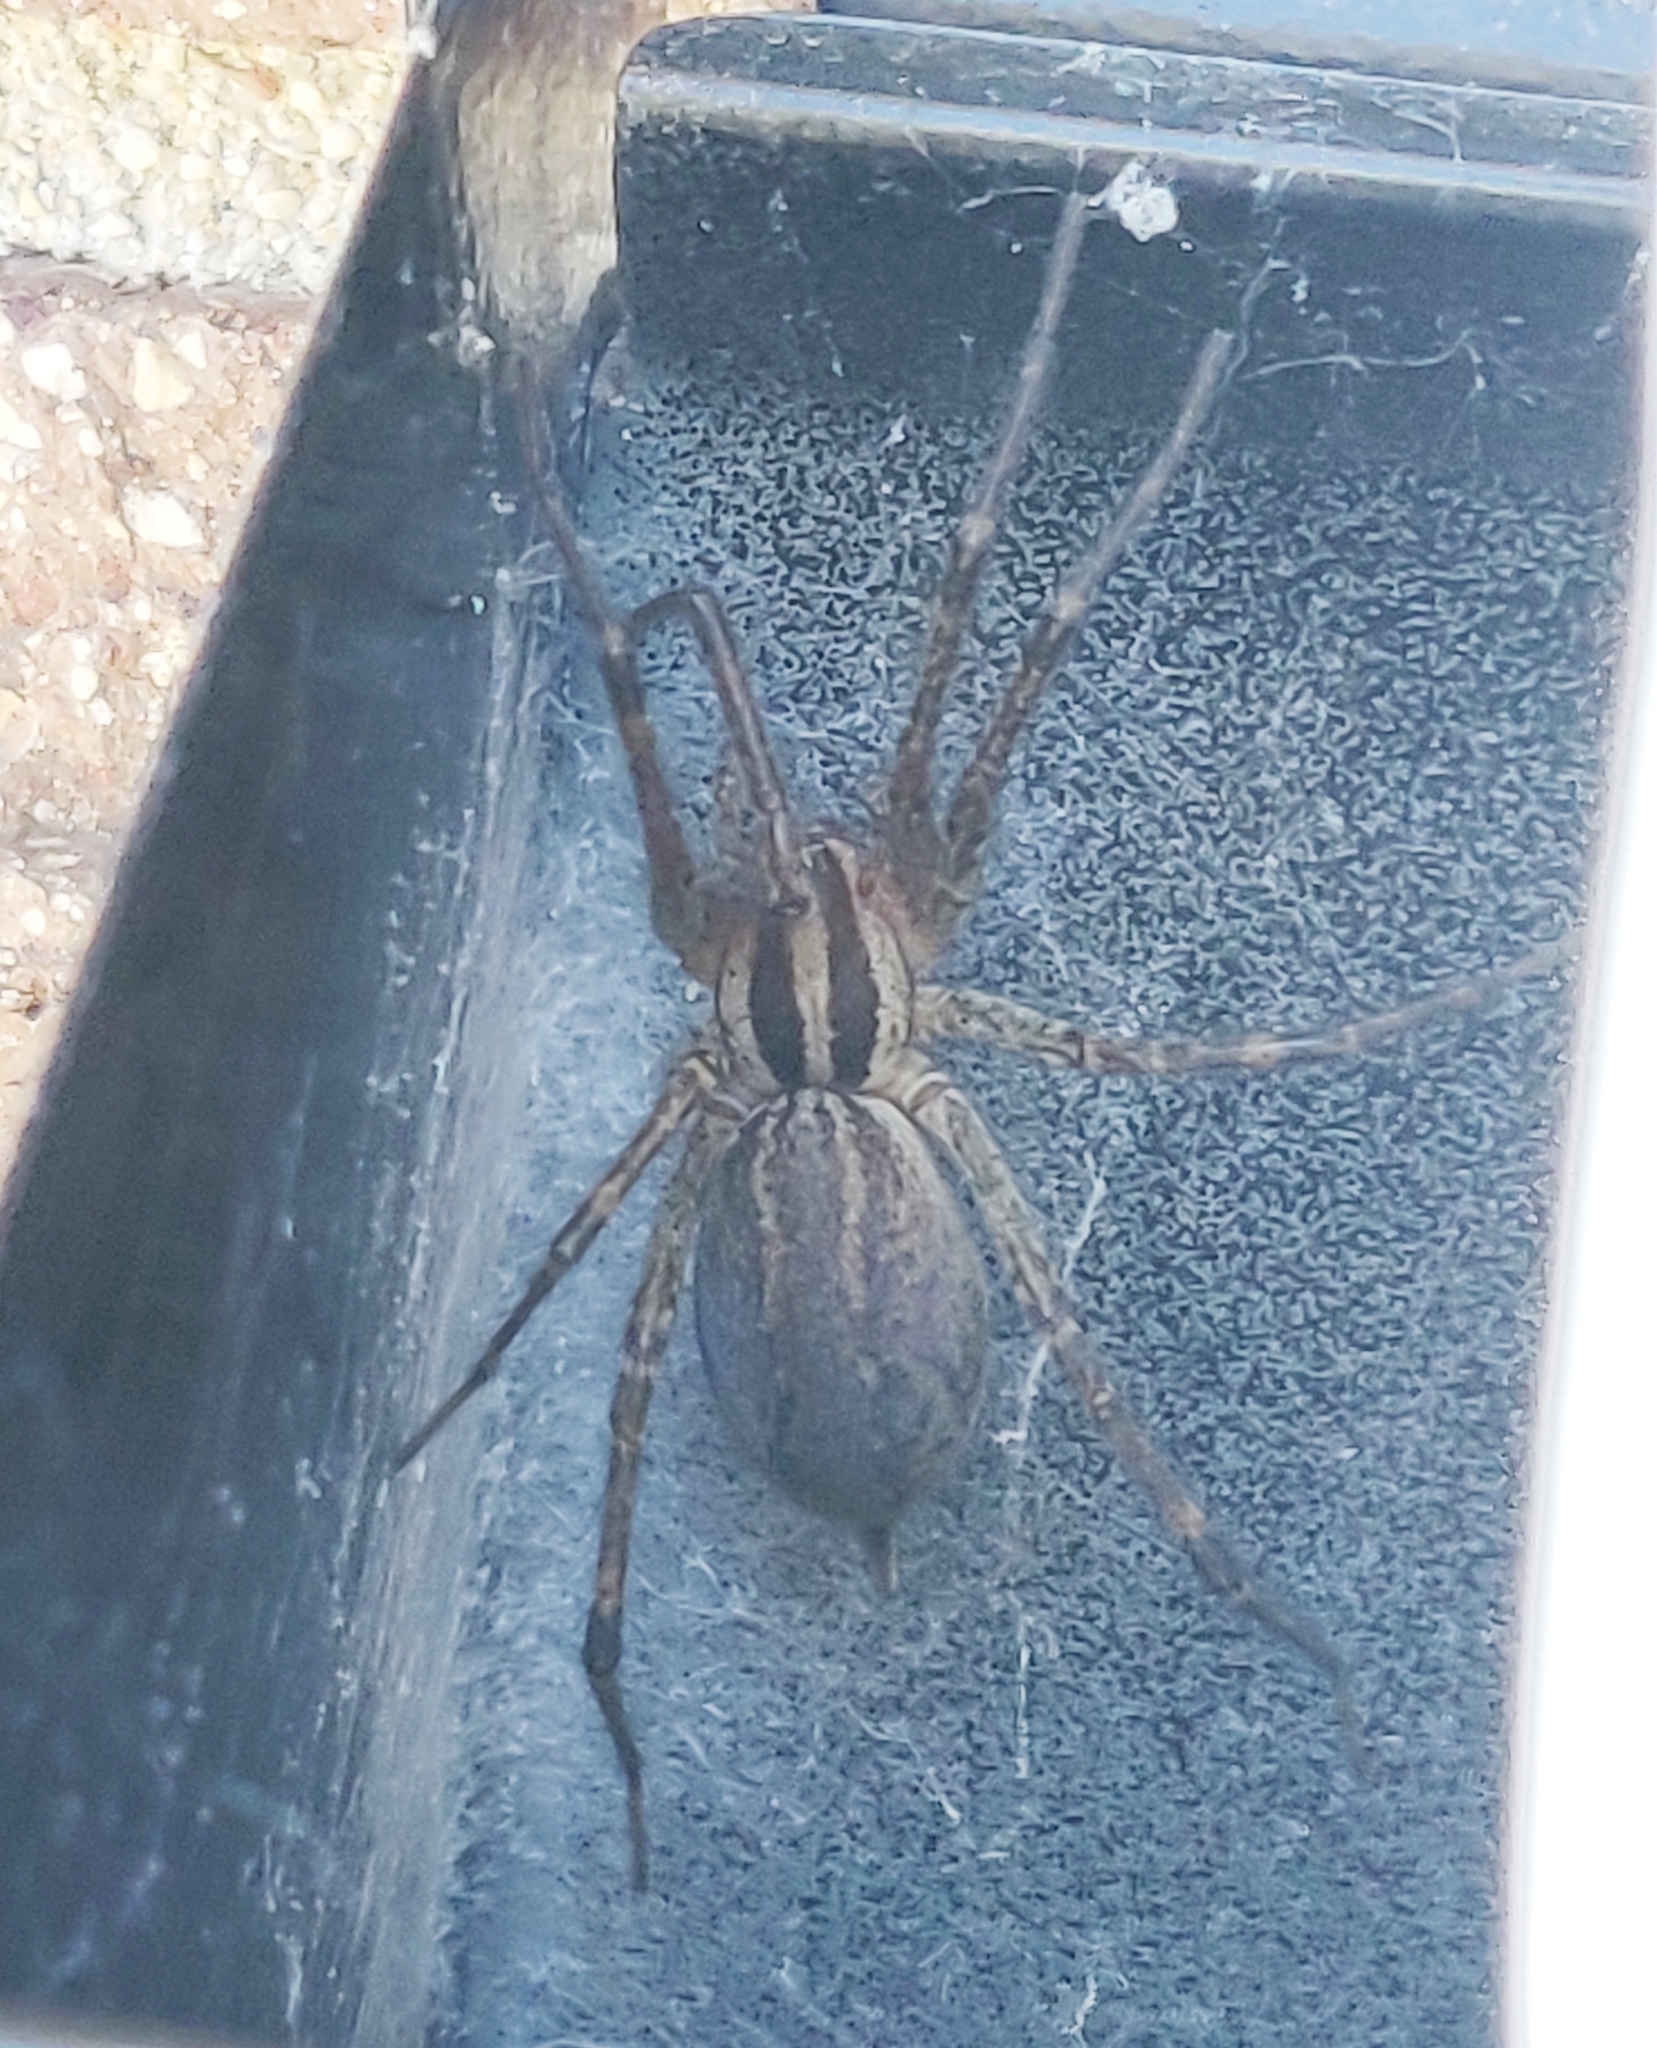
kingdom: Animalia
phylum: Arthropoda
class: Arachnida
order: Araneae
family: Agelenidae
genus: Agelenopsis
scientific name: Agelenopsis
